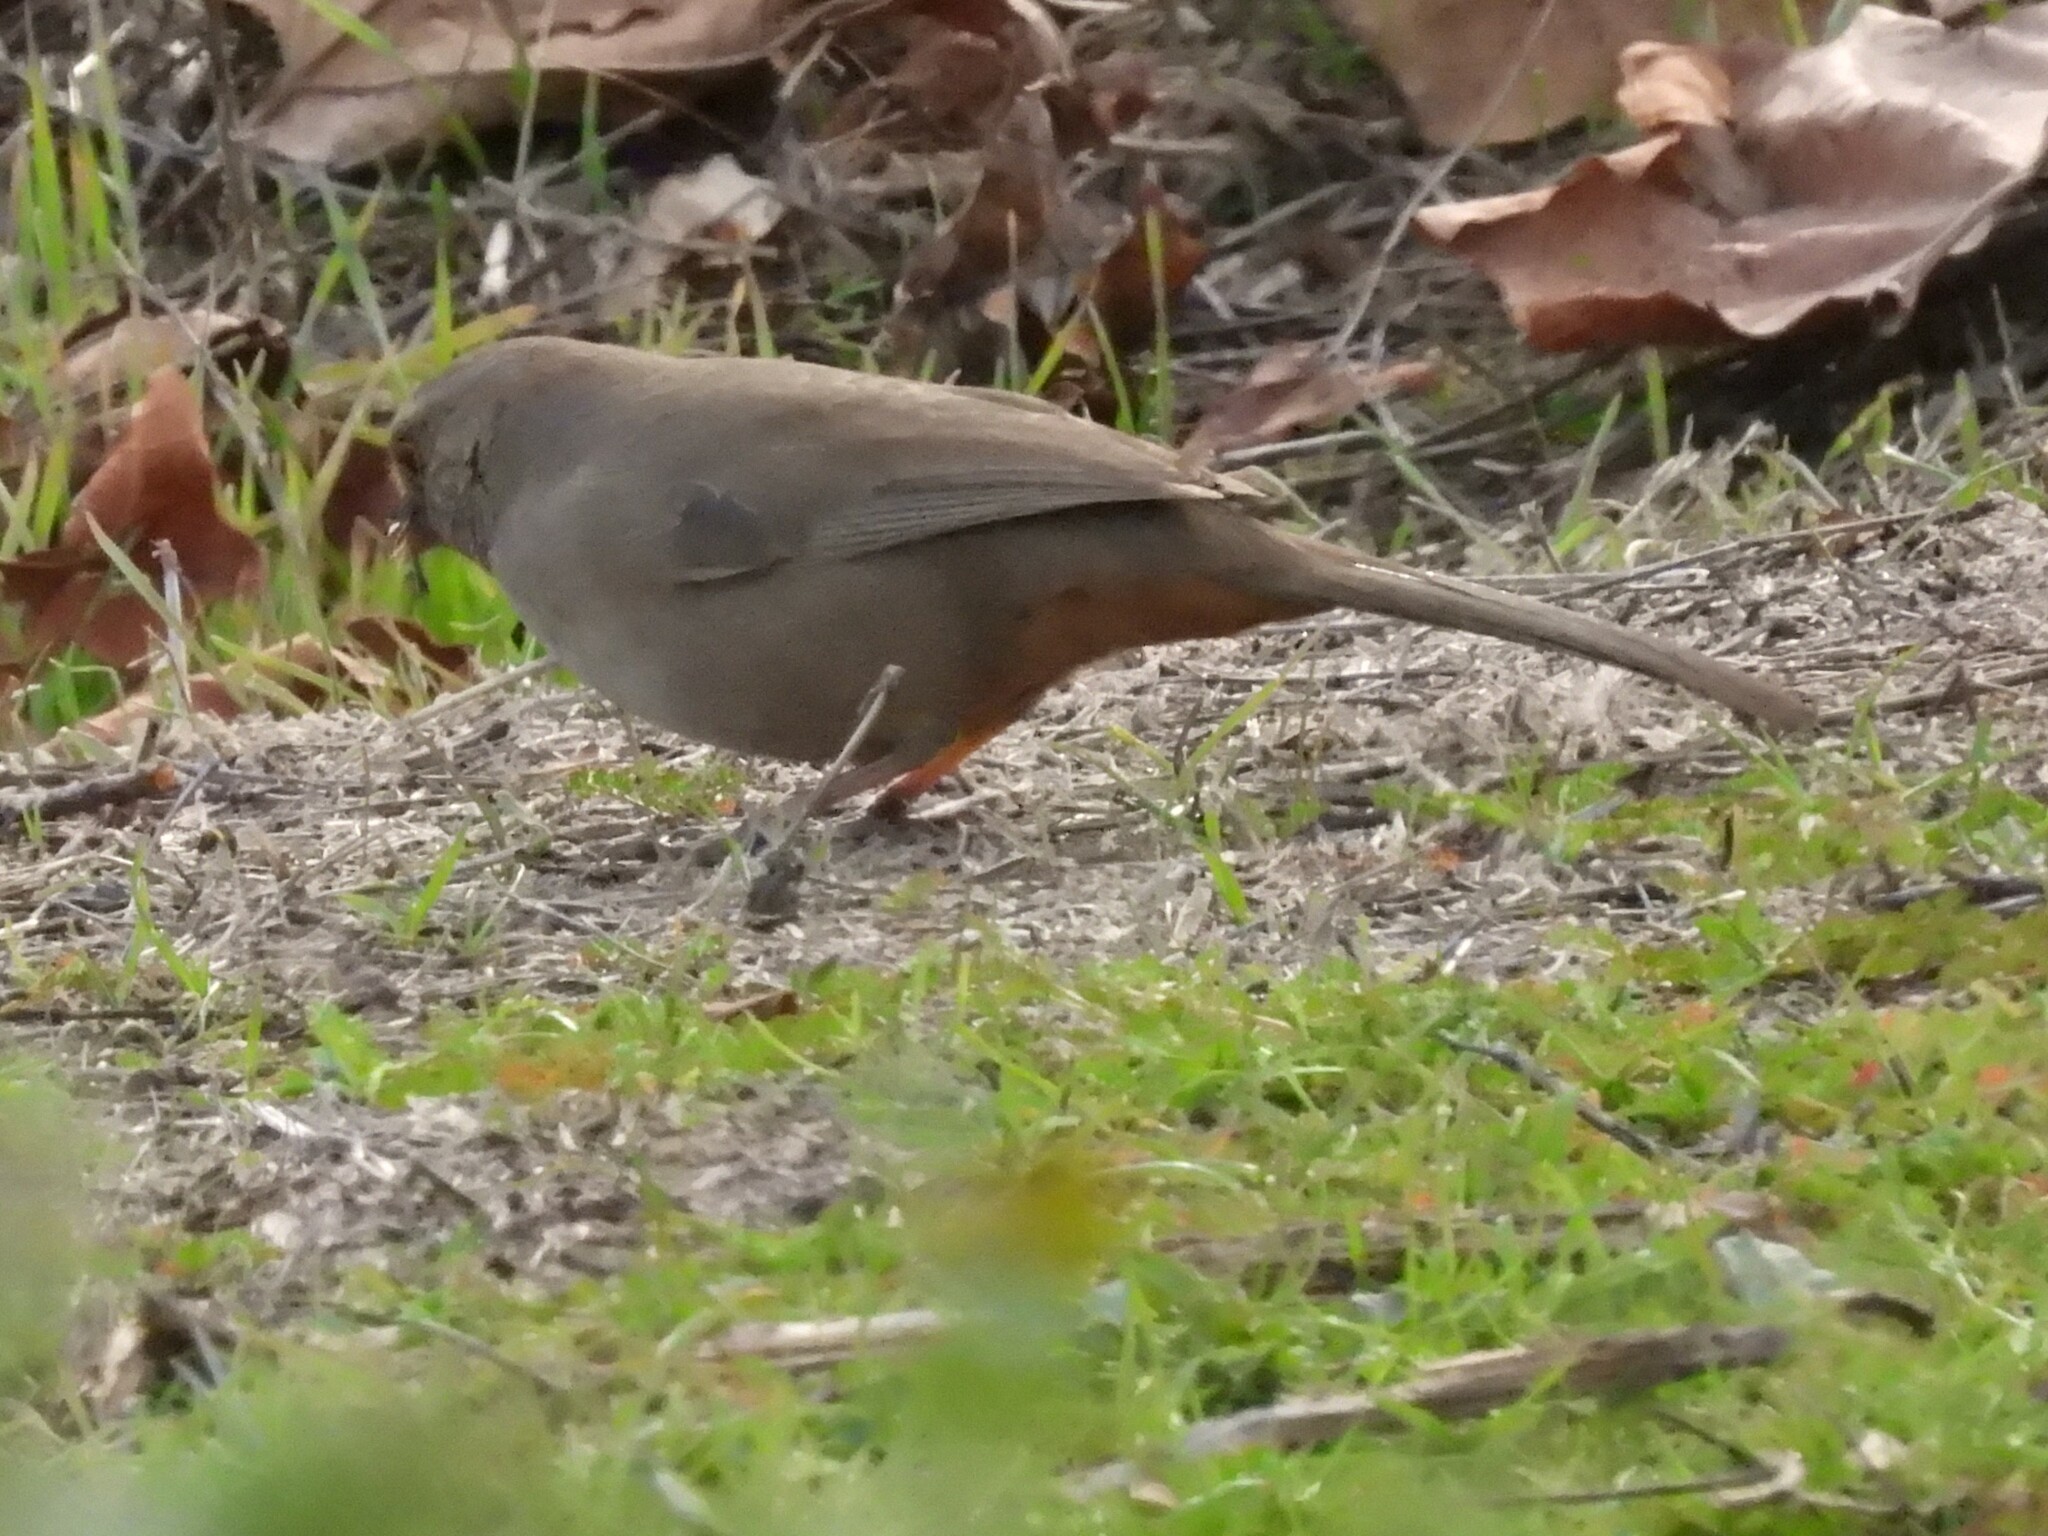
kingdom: Animalia
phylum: Chordata
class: Aves
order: Passeriformes
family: Passerellidae
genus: Melozone
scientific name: Melozone crissalis
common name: California towhee
